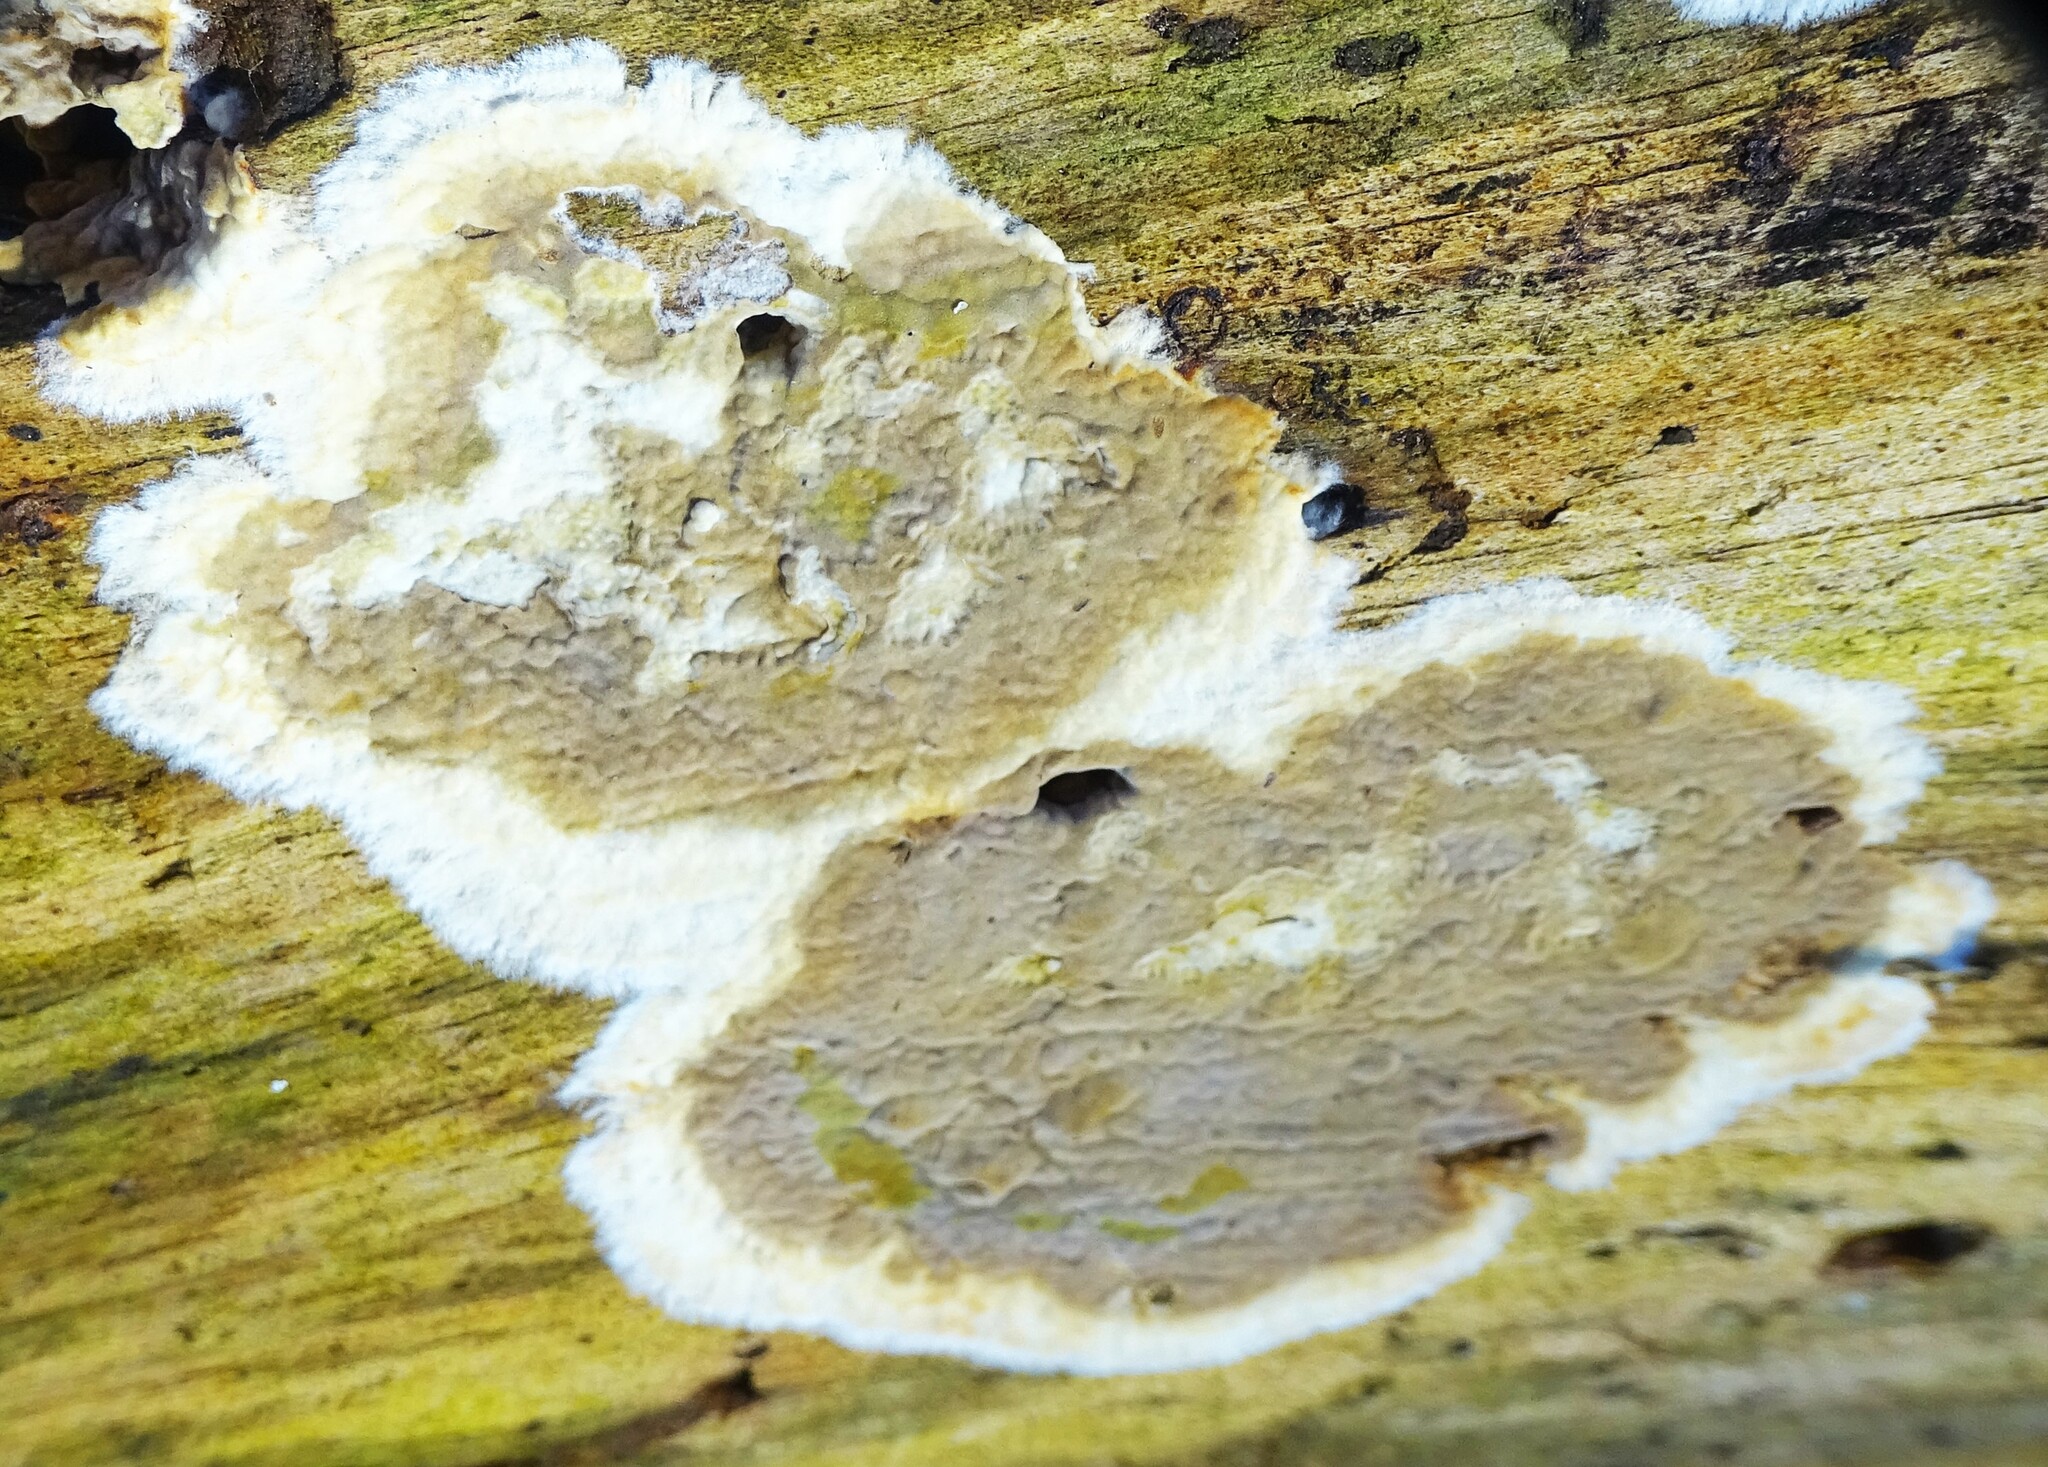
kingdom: Fungi
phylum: Basidiomycota
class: Agaricomycetes
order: Boletales
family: Coniophoraceae
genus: Coniophora
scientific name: Coniophora puteana
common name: Cellar fungus
